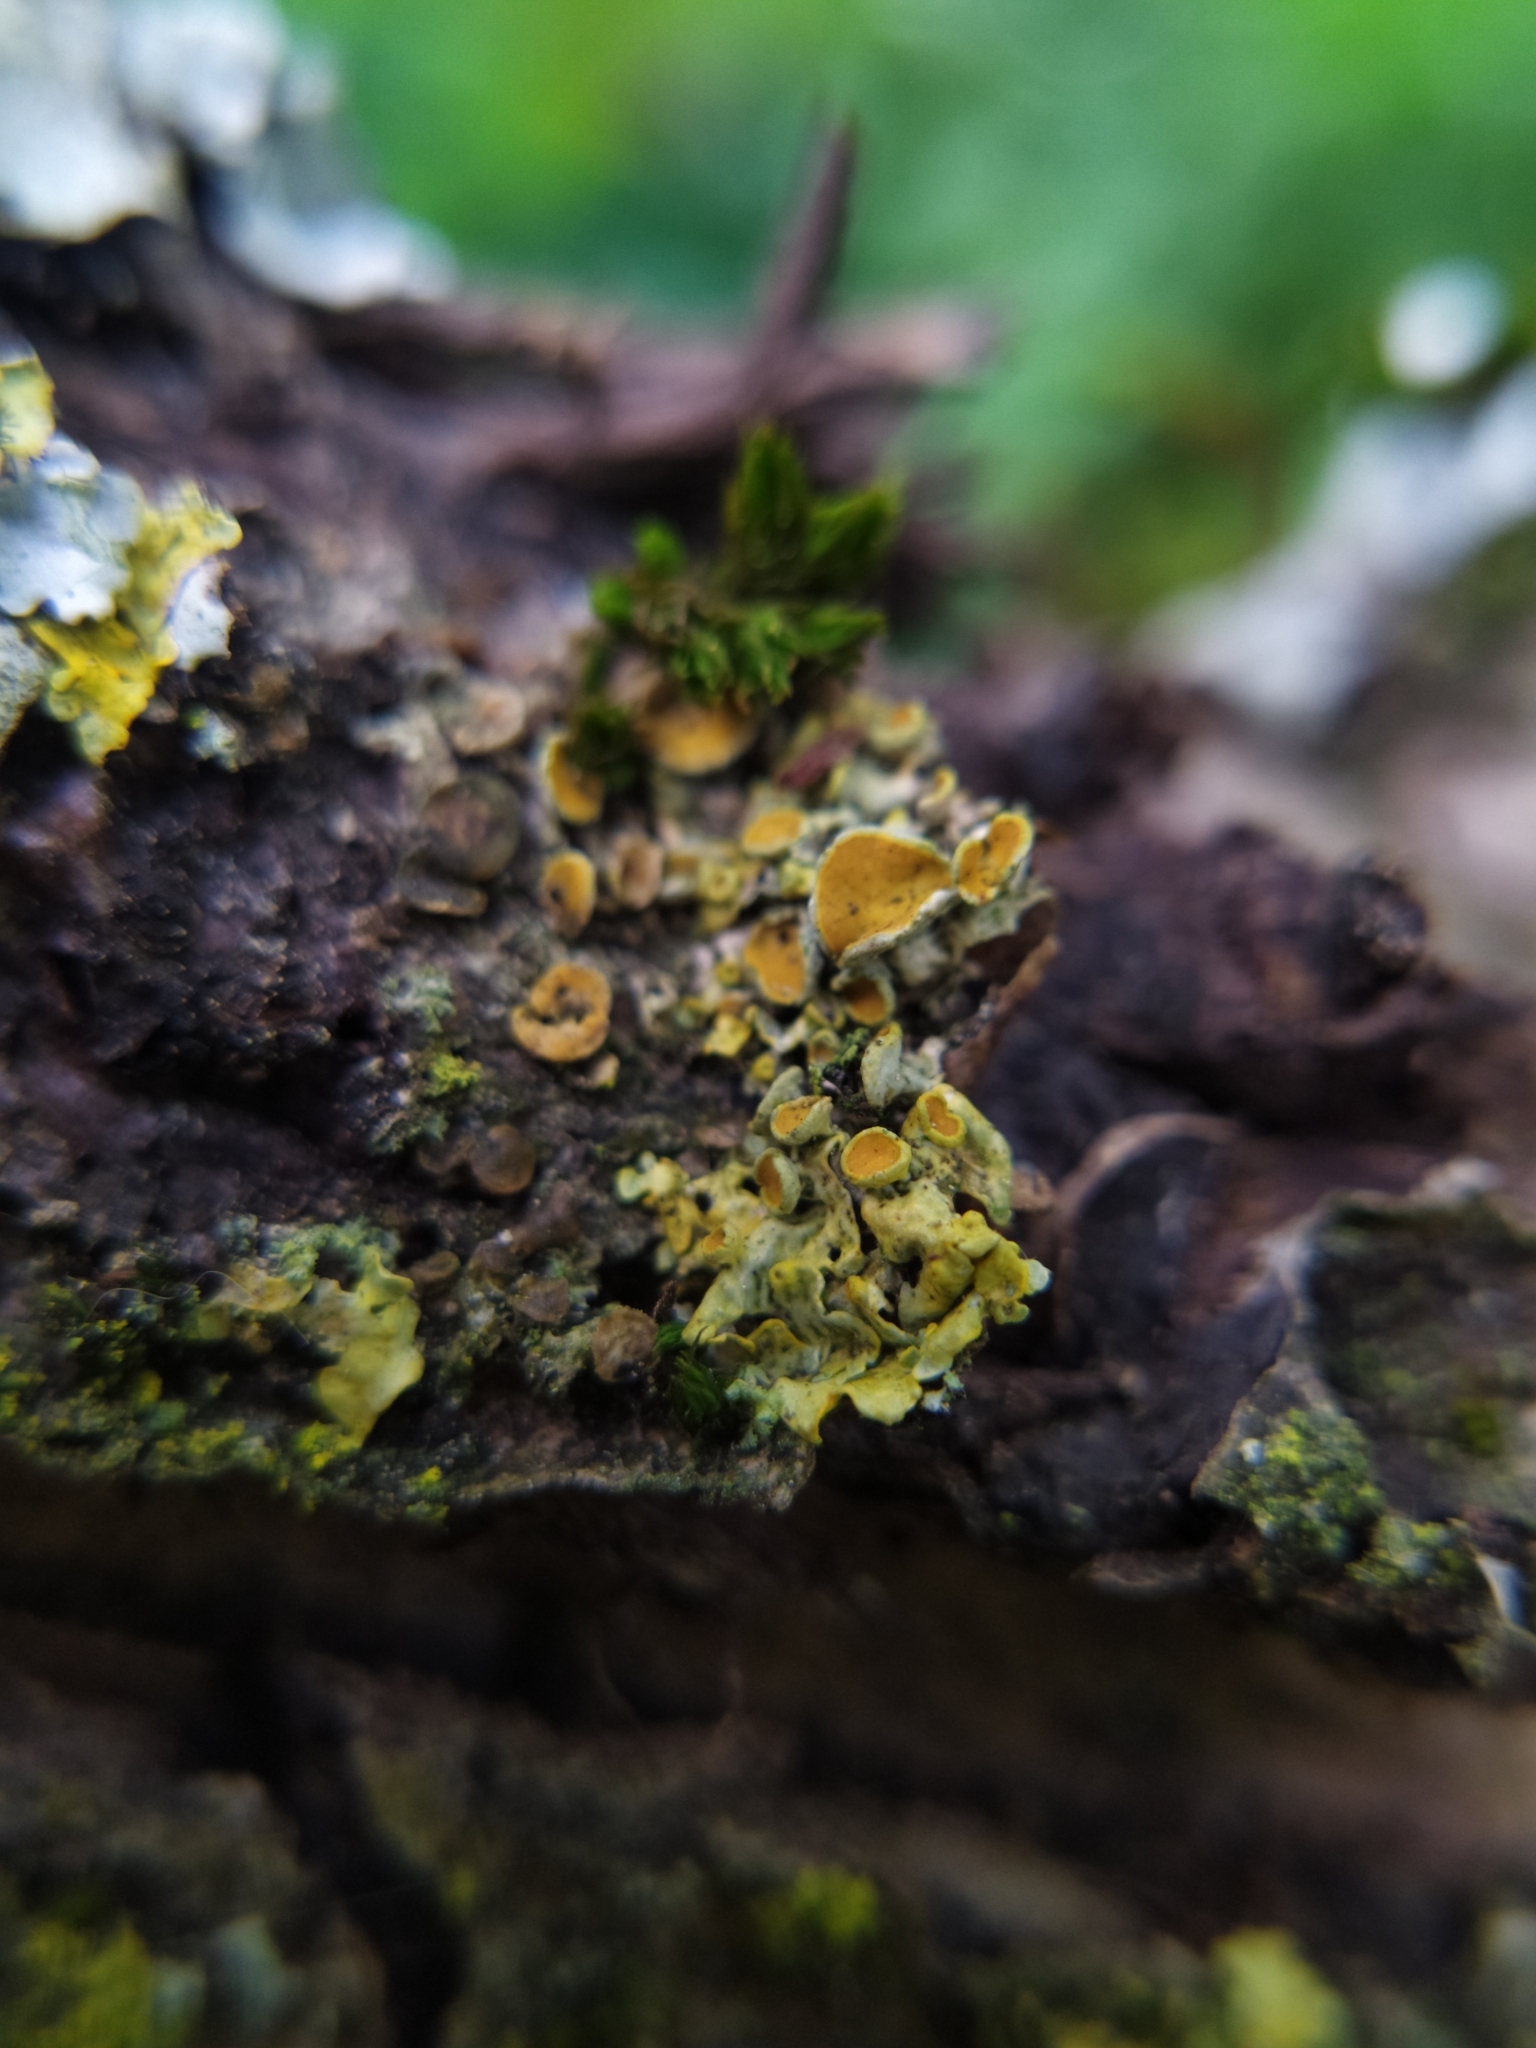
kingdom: Fungi
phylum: Ascomycota
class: Lecanoromycetes
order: Teloschistales
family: Teloschistaceae
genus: Xanthoria
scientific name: Xanthoria parietina
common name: Common orange lichen
